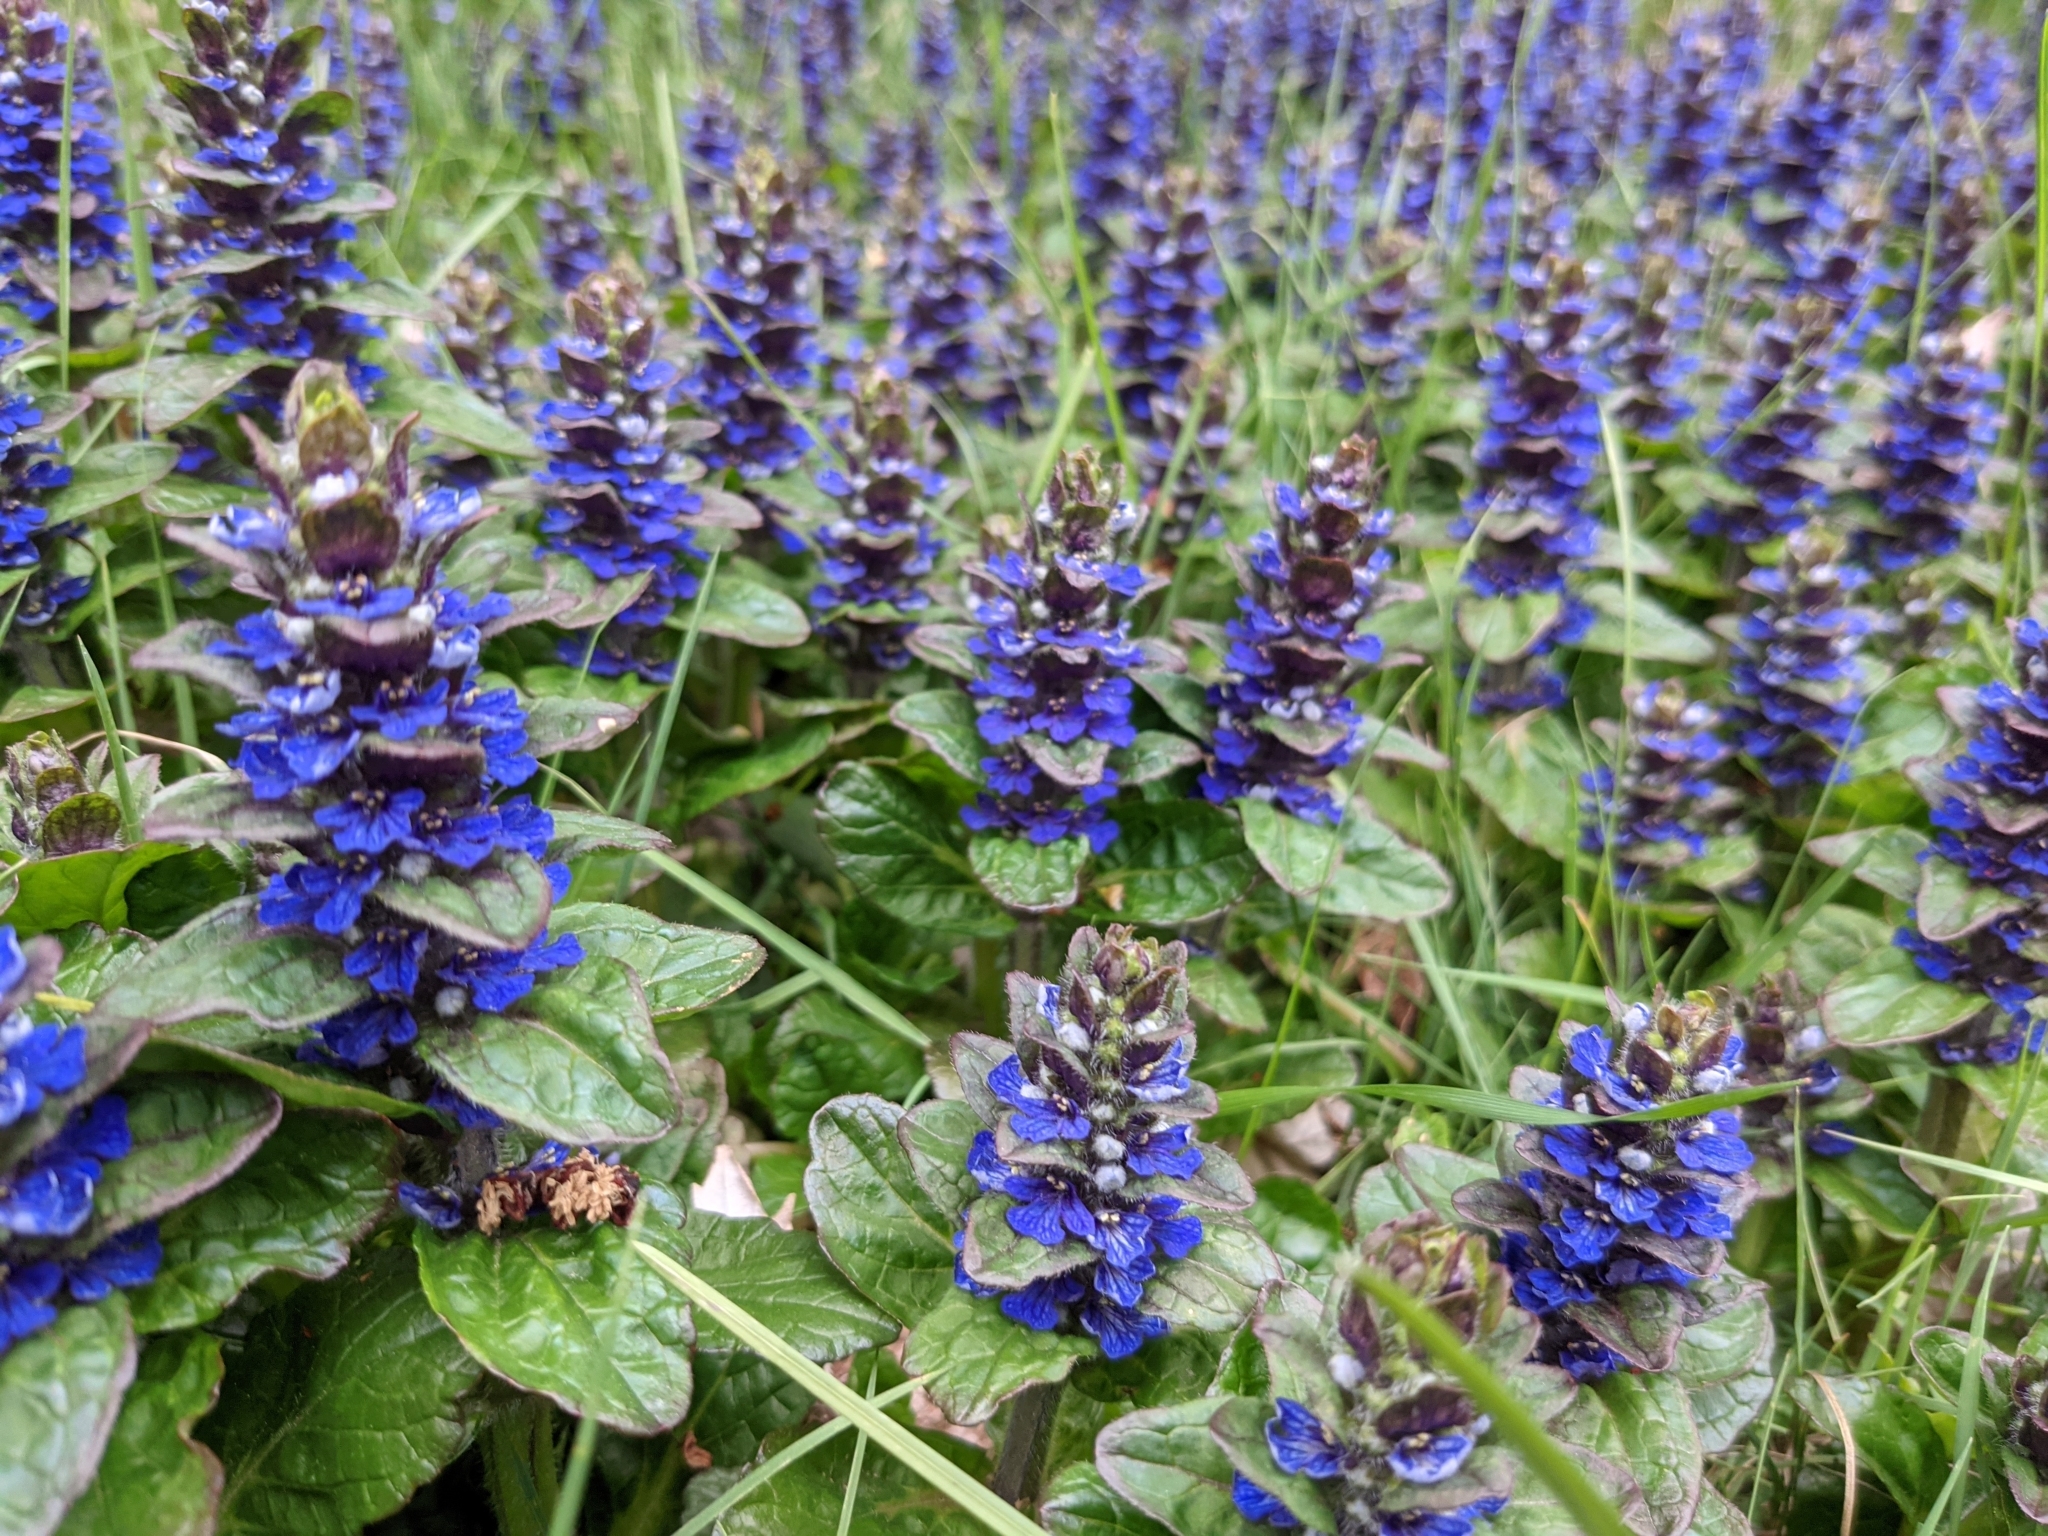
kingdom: Plantae
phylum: Tracheophyta
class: Magnoliopsida
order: Lamiales
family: Lamiaceae
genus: Ajuga
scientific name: Ajuga reptans
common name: Bugle
